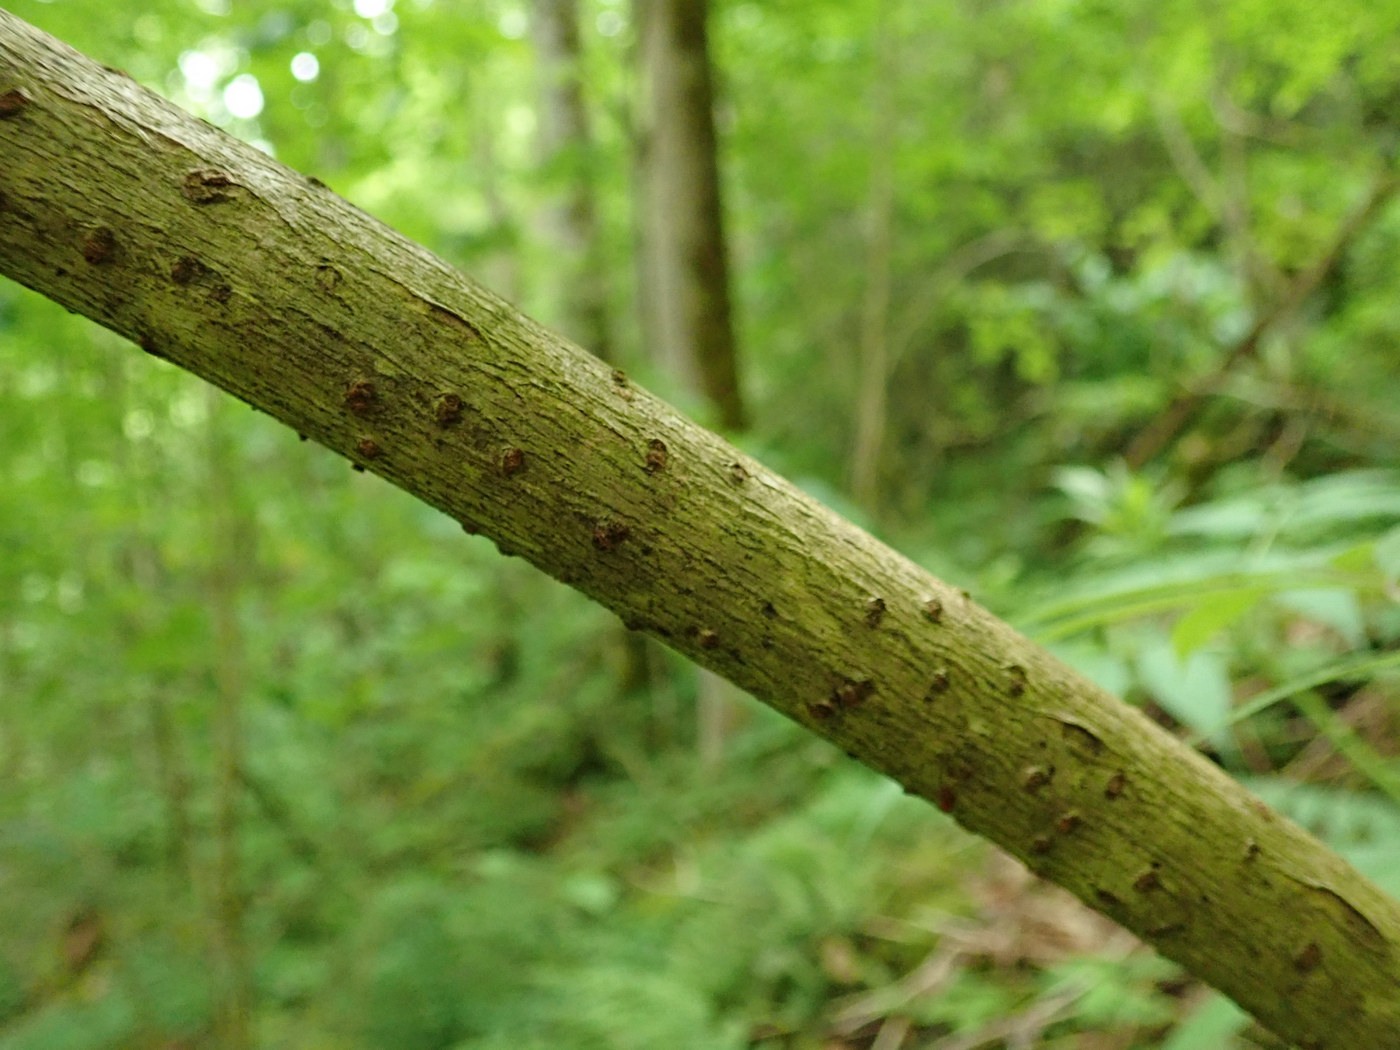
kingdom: Plantae
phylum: Tracheophyta
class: Magnoliopsida
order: Dipsacales
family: Viburnaceae
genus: Sambucus
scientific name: Sambucus racemosa
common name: Red-berried elder
